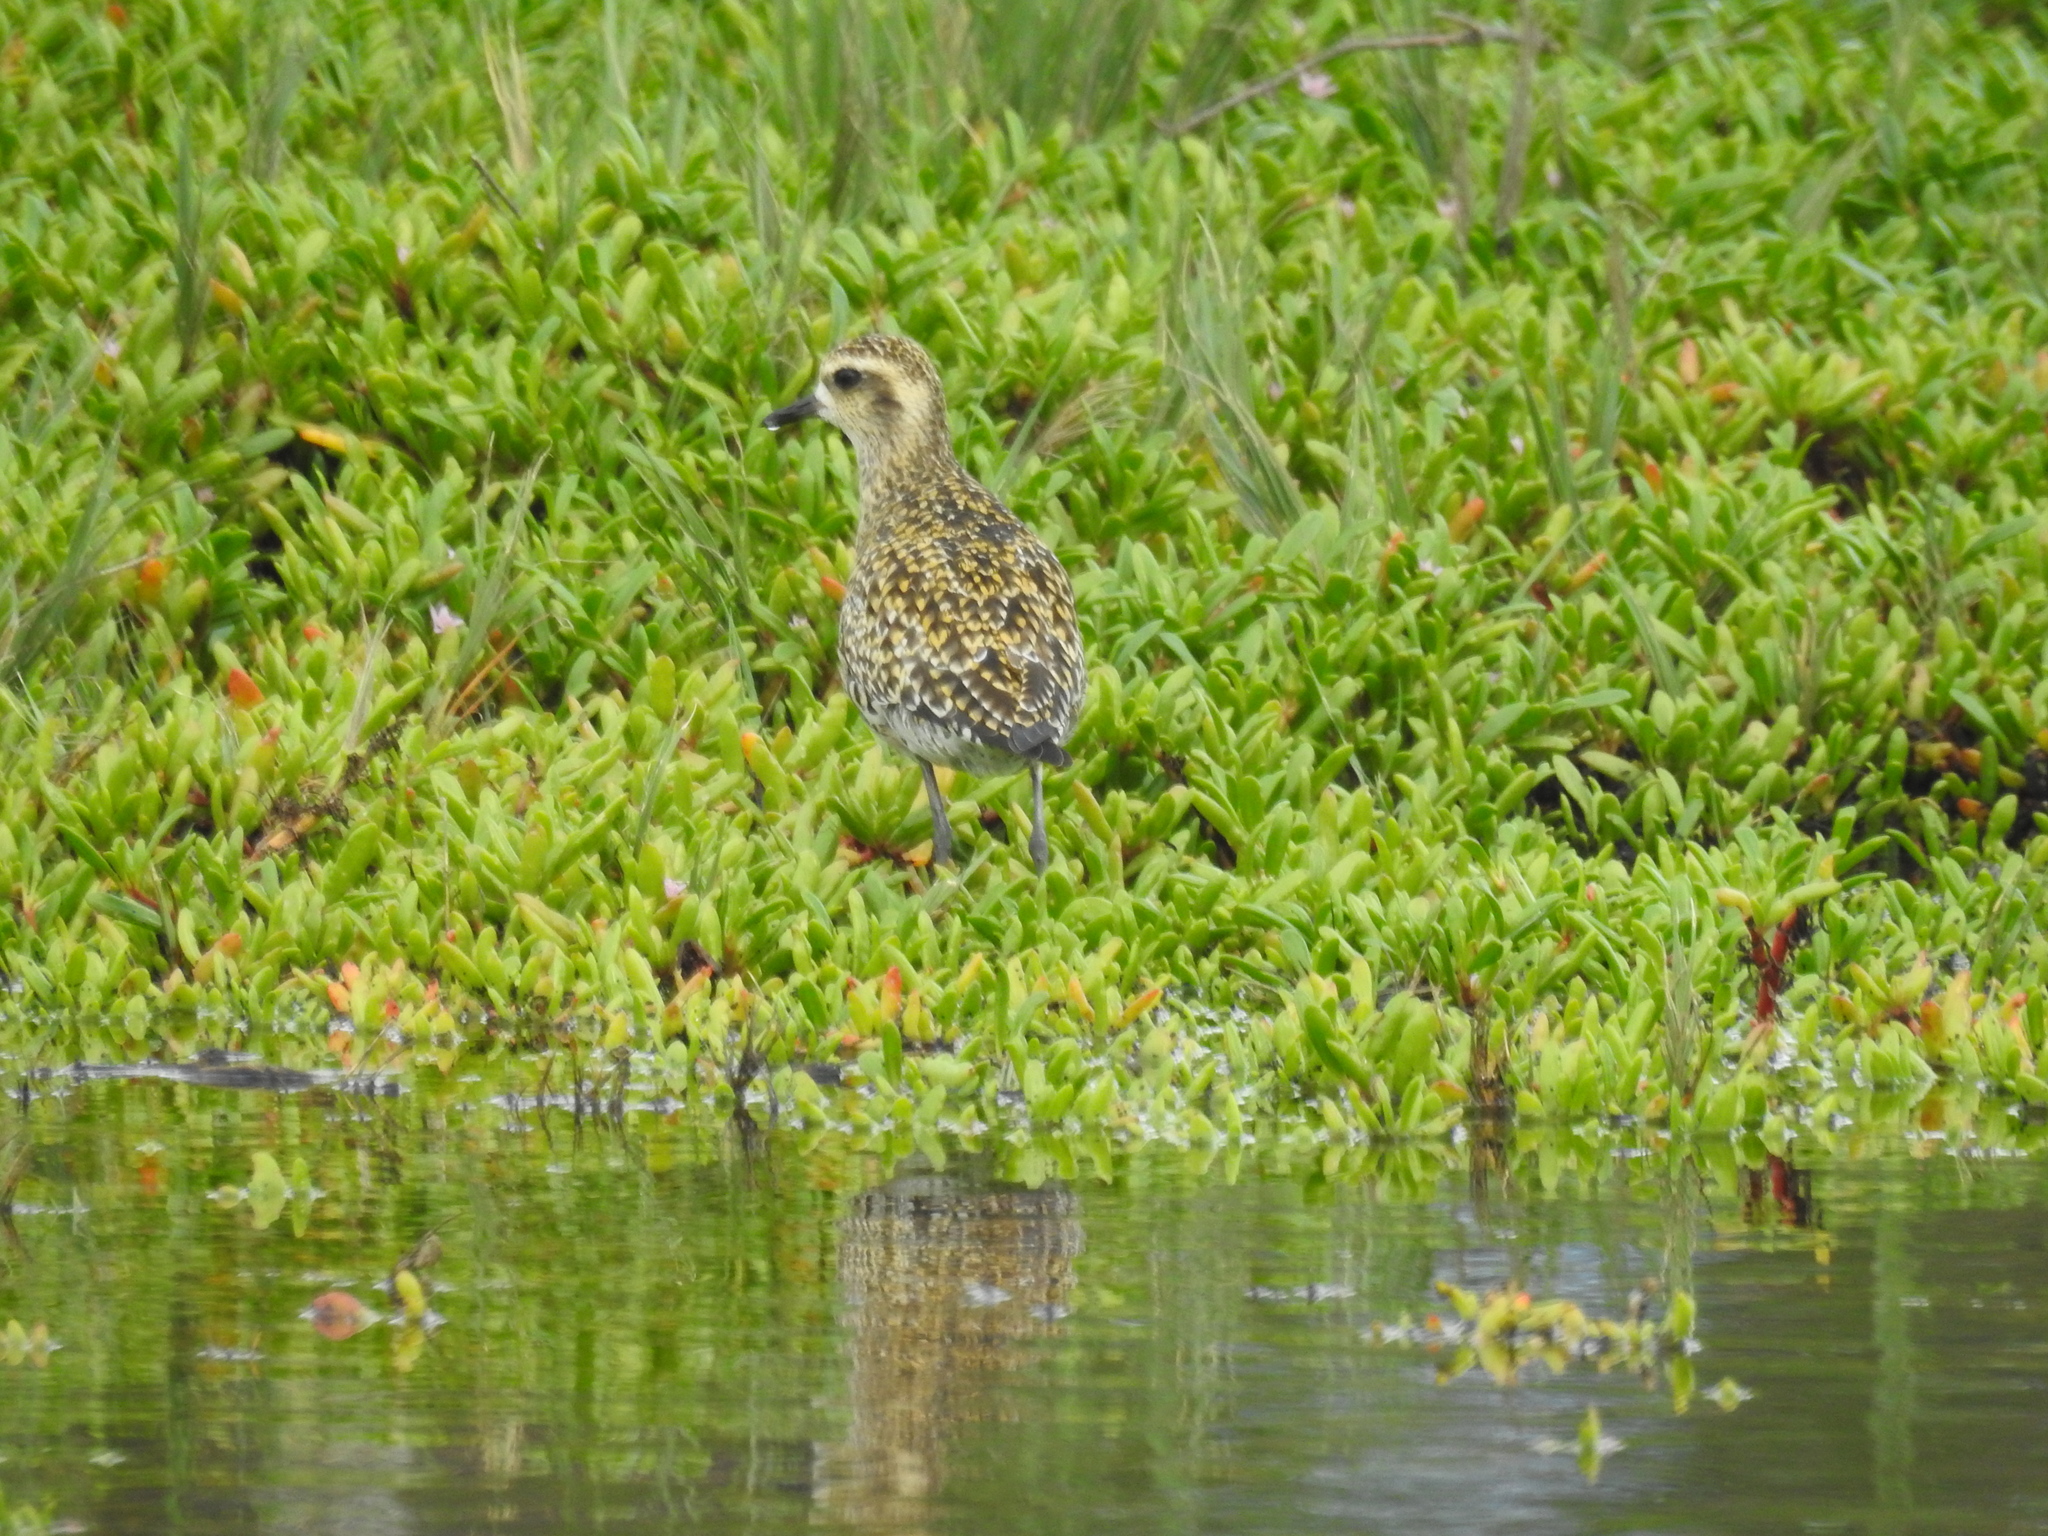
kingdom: Animalia
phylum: Chordata
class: Aves
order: Charadriiformes
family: Charadriidae
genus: Pluvialis
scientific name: Pluvialis fulva
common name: Pacific golden plover
